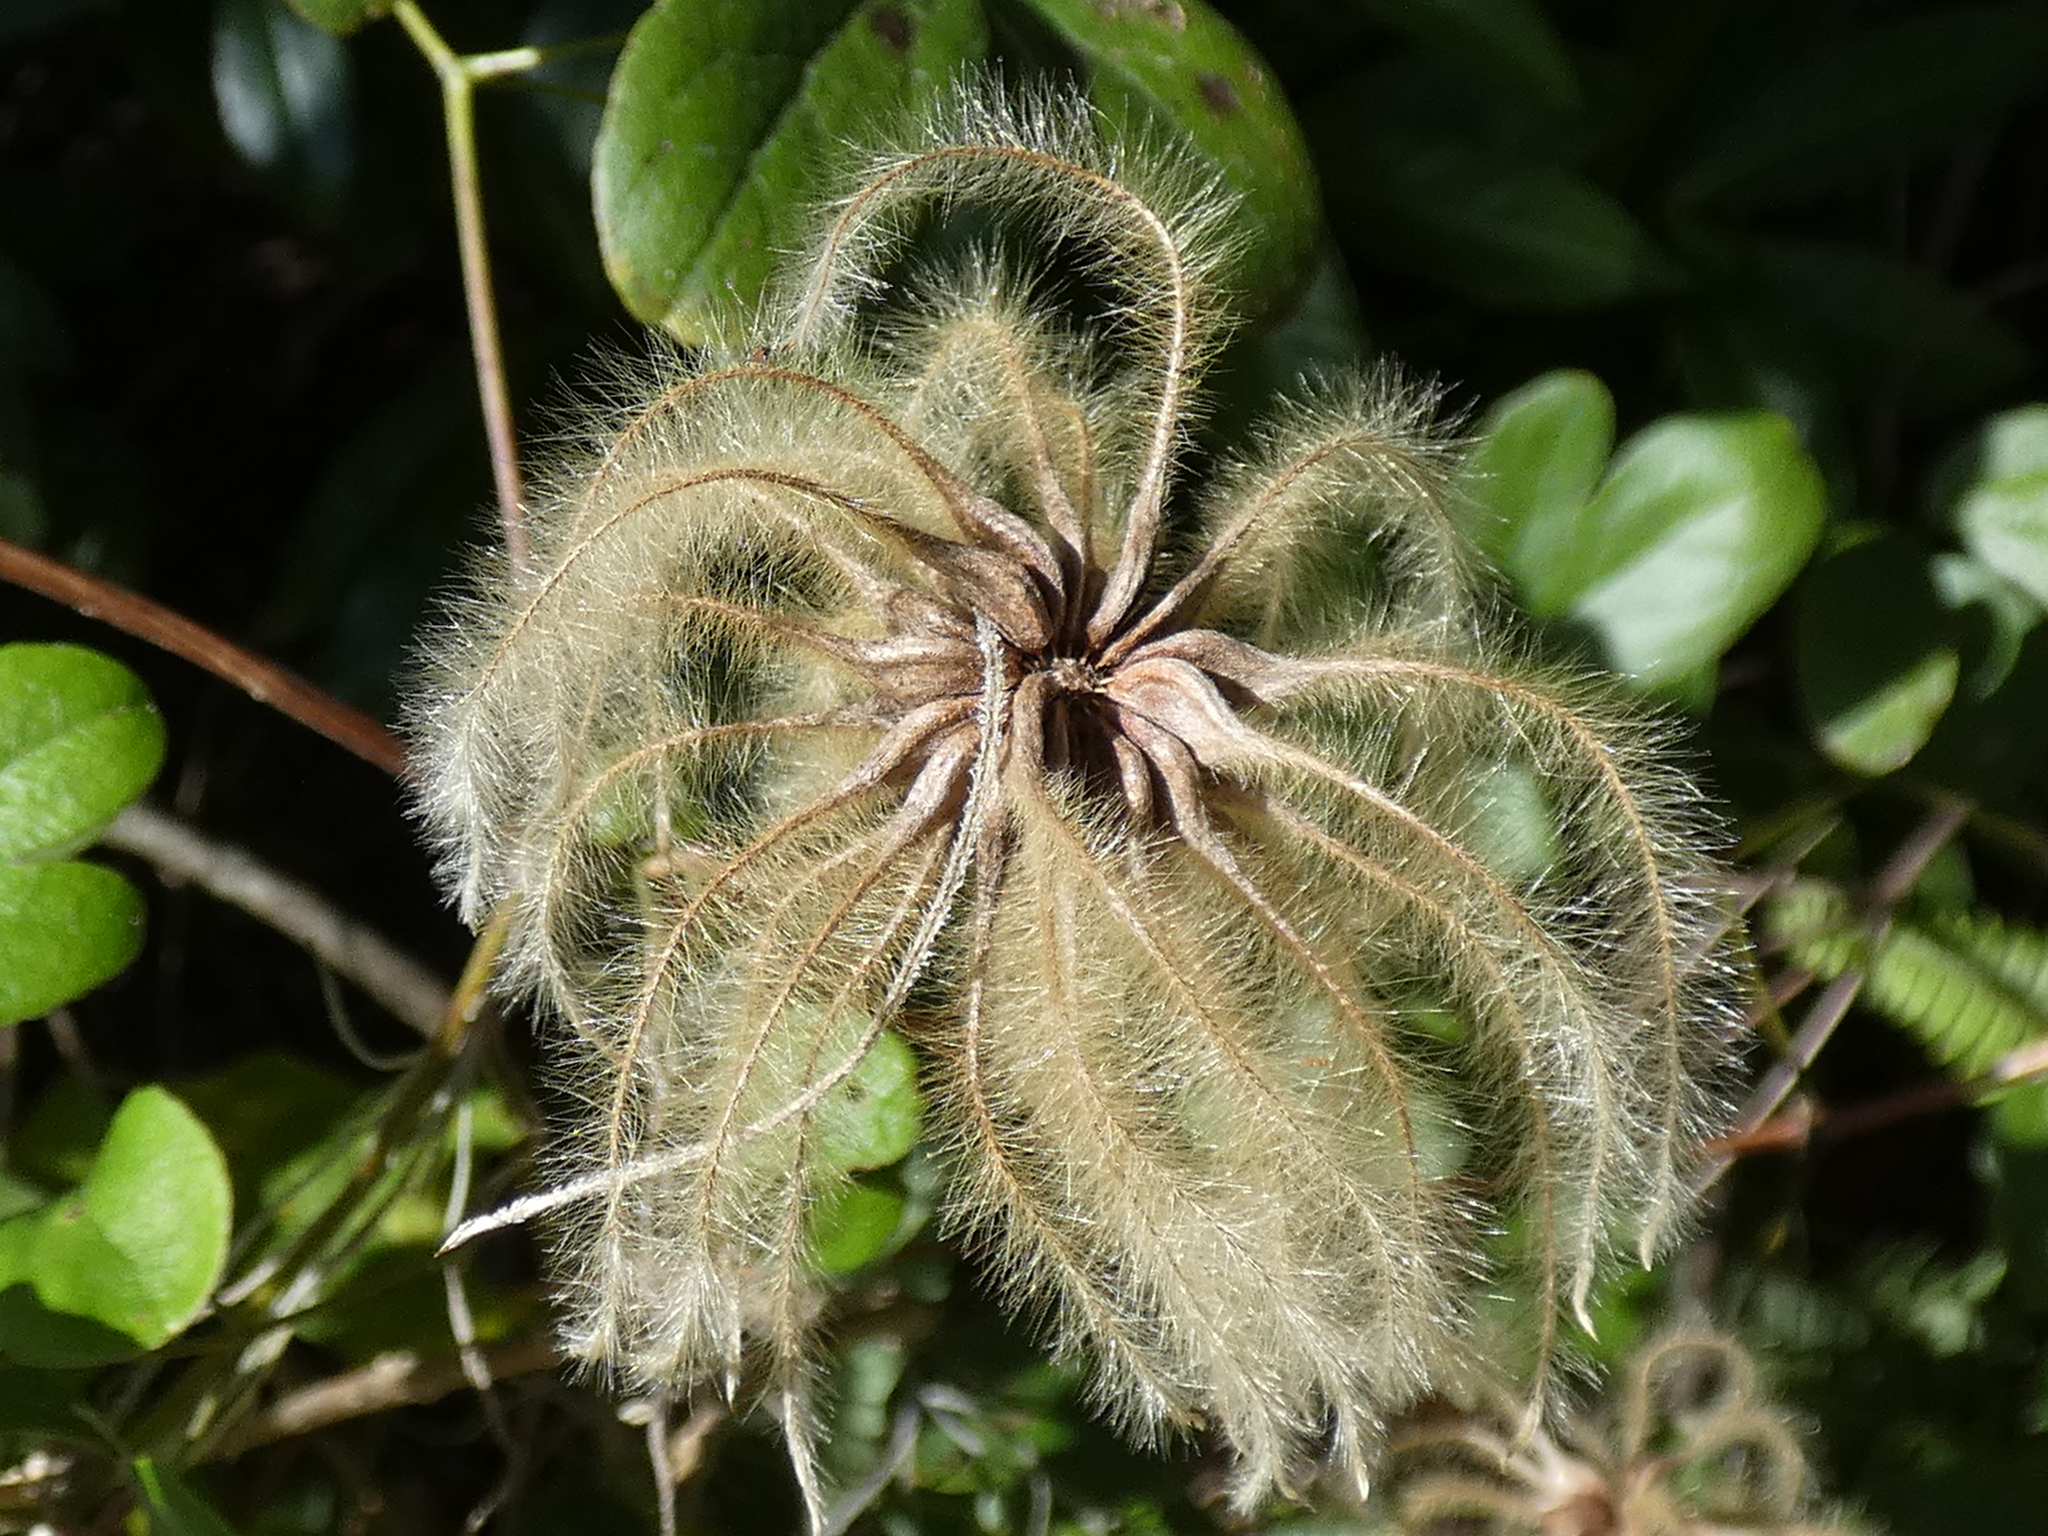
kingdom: Plantae
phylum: Tracheophyta
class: Magnoliopsida
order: Ranunculales
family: Ranunculaceae
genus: Clematis
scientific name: Clematis reticulata
